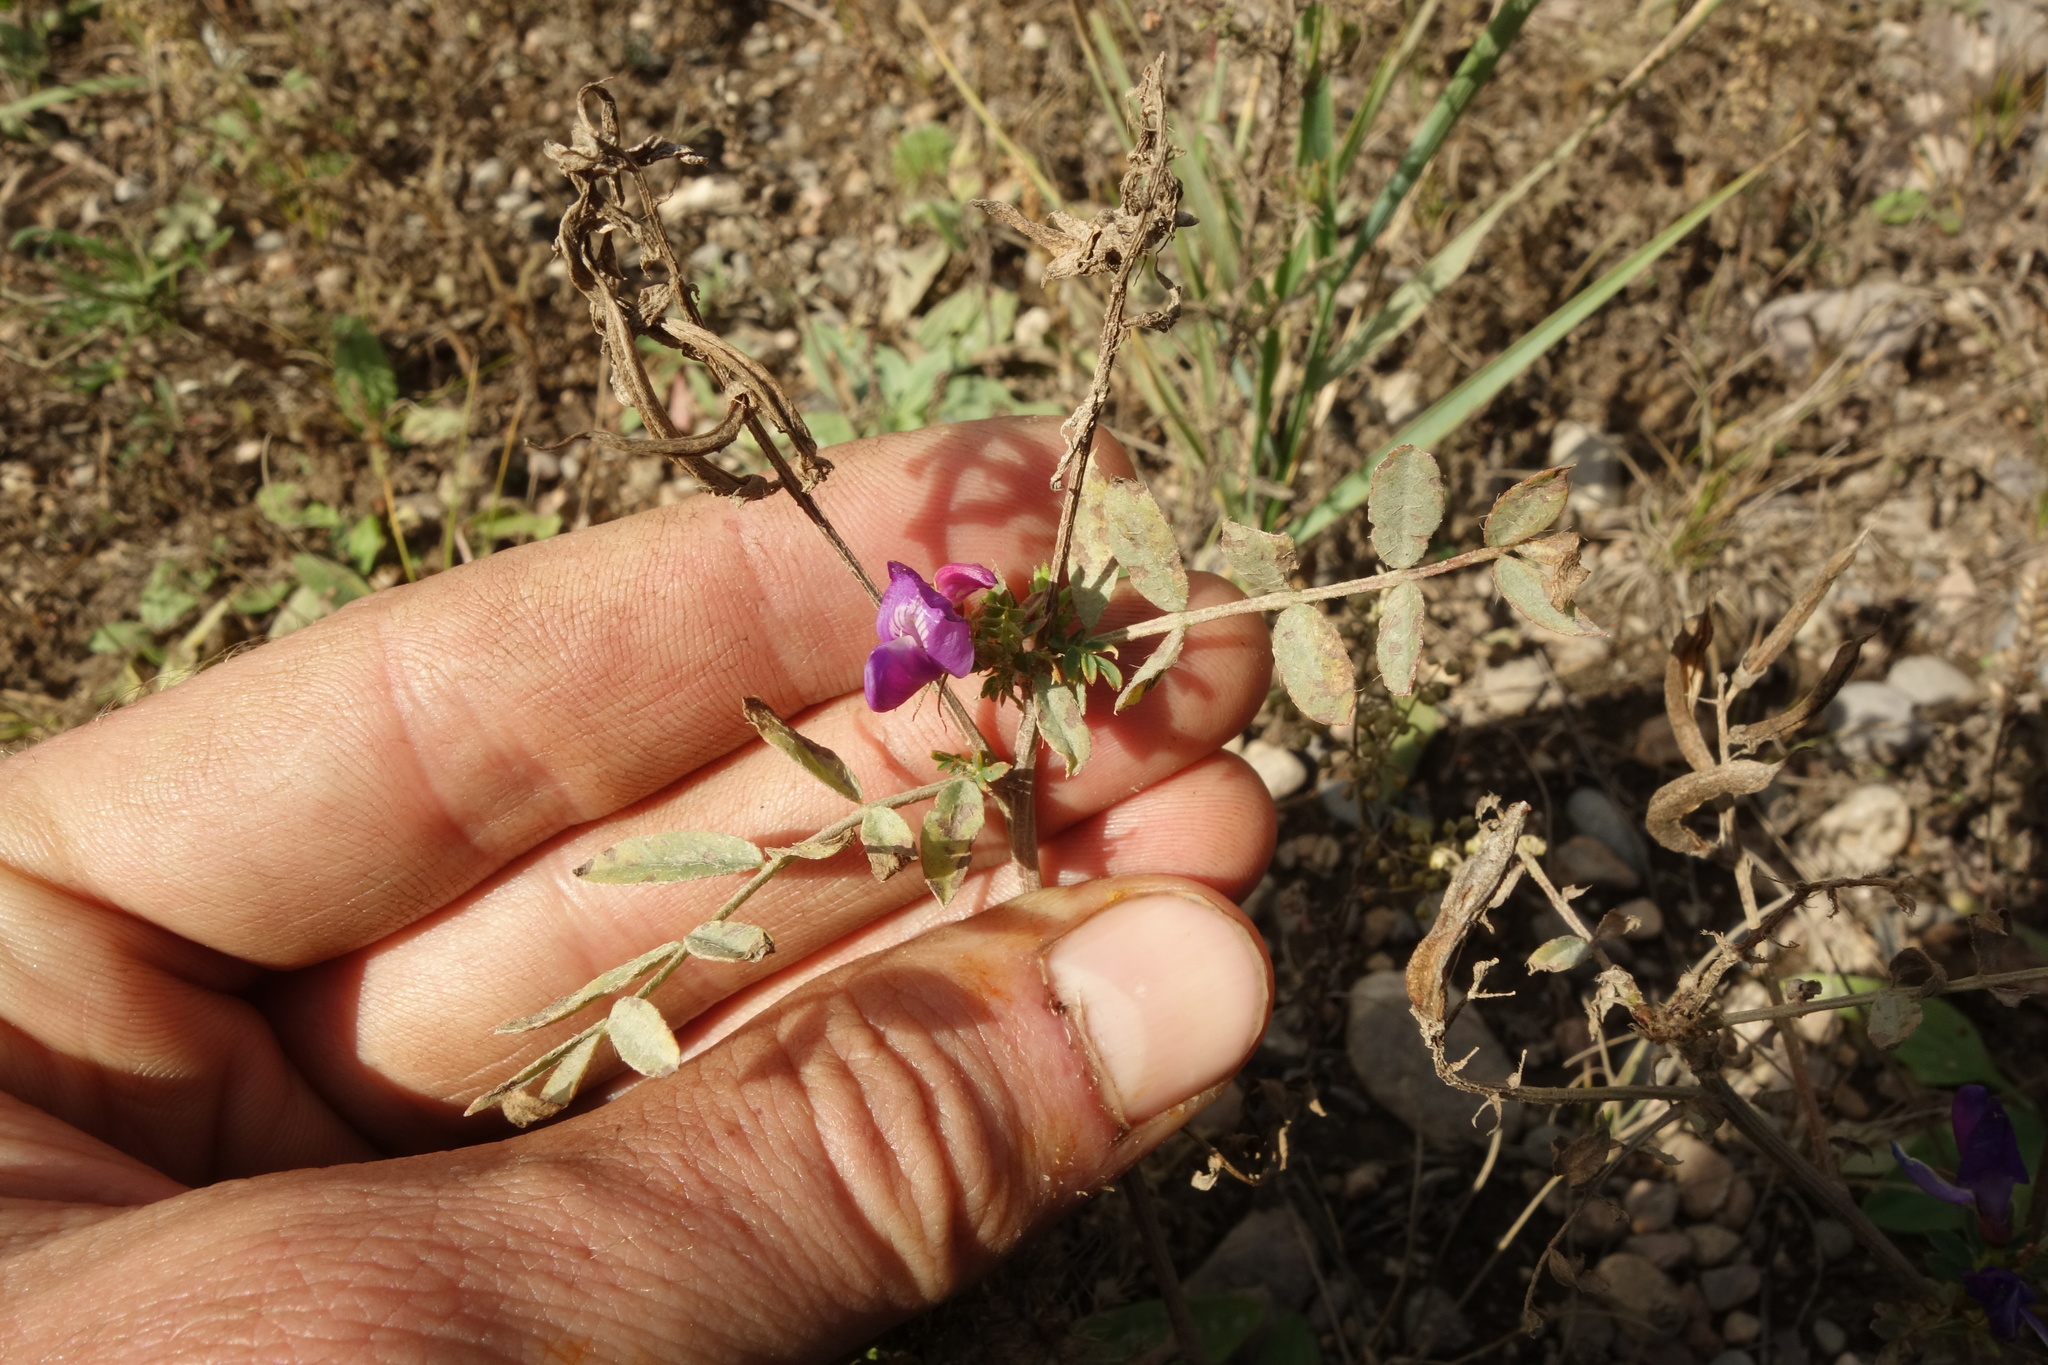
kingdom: Plantae
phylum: Tracheophyta
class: Magnoliopsida
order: Fabales
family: Fabaceae
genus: Astragalus
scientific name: Astragalus davuricus
